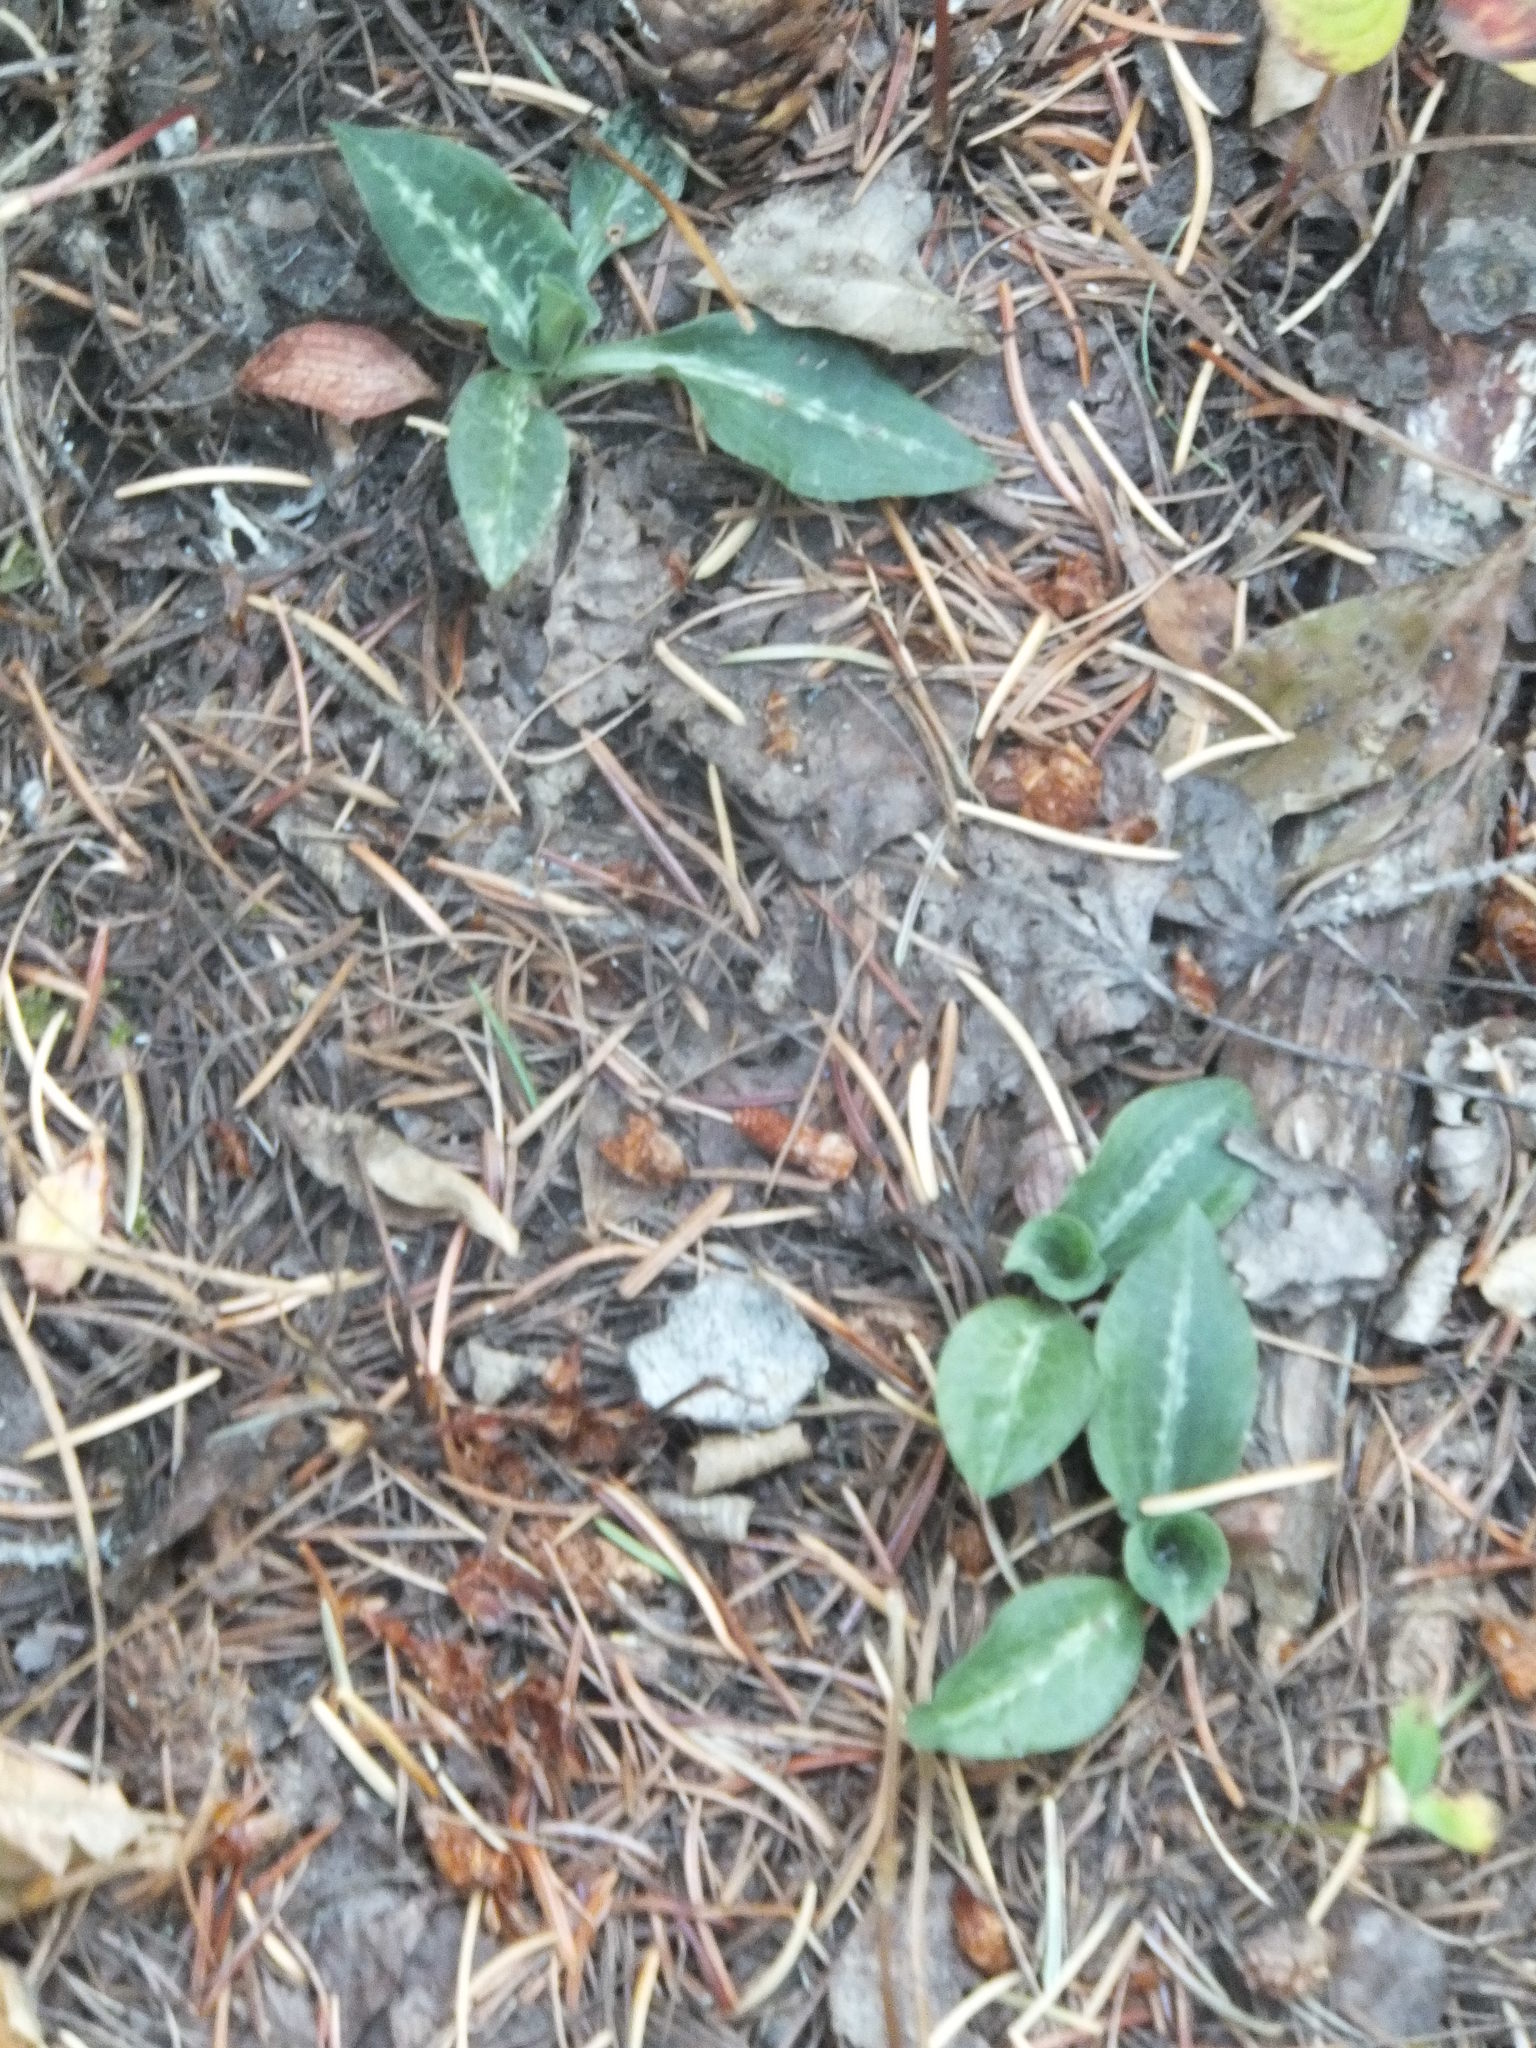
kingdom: Plantae
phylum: Tracheophyta
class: Liliopsida
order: Asparagales
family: Orchidaceae
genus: Goodyera
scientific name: Goodyera oblongifolia
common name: Giant rattlesnake-plantain
